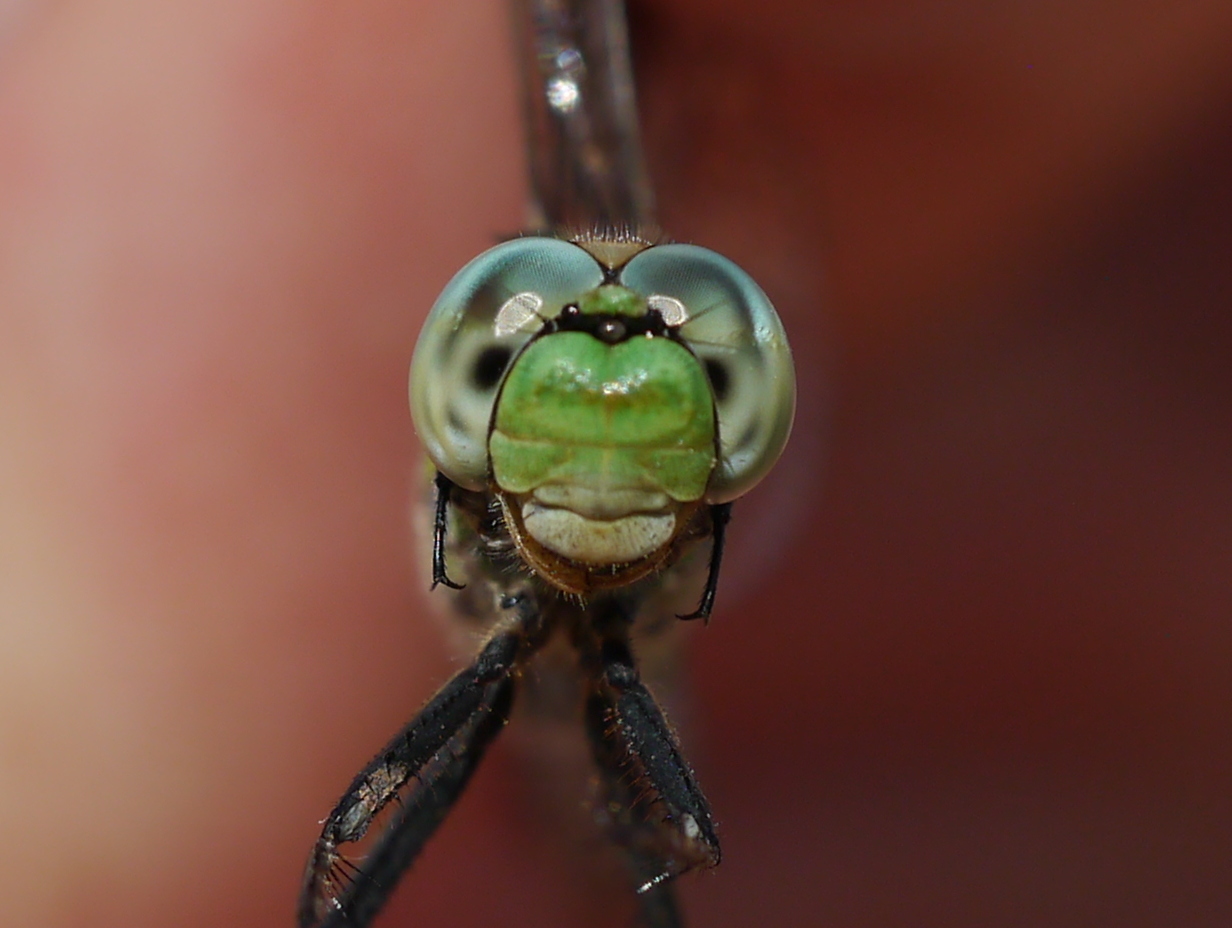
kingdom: Animalia
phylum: Arthropoda
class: Insecta
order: Odonata
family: Libellulidae
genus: Erythemis
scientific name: Erythemis collocata
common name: Western pondhawk
